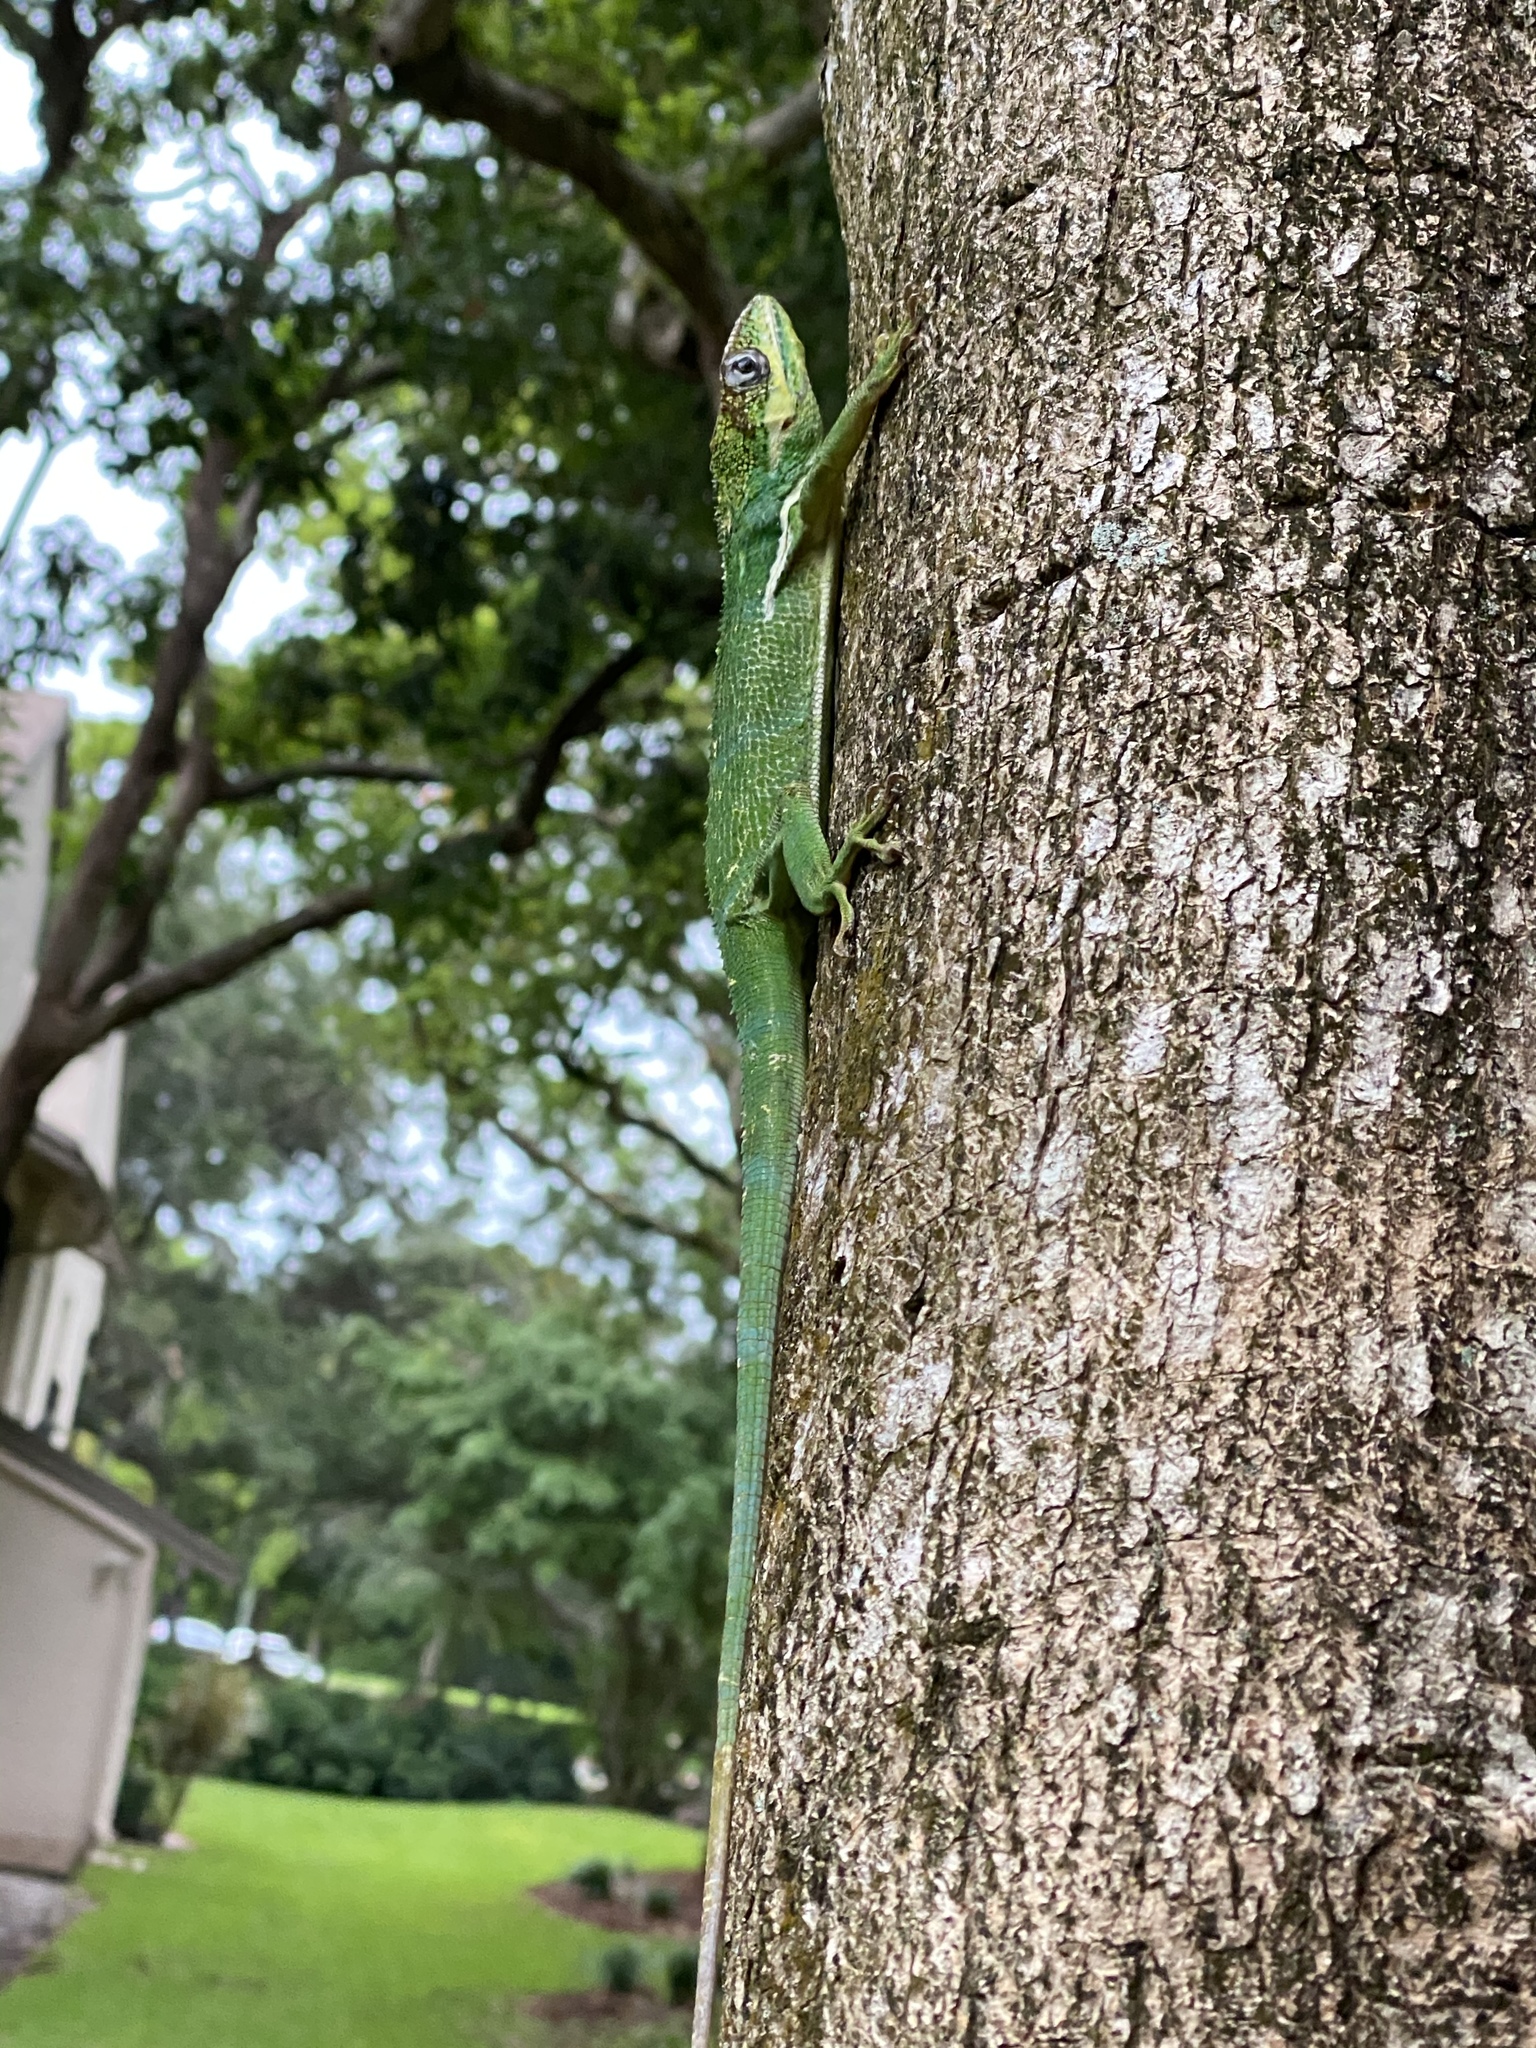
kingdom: Animalia
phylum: Chordata
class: Squamata
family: Dactyloidae
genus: Anolis
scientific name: Anolis equestris
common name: Knight anole
